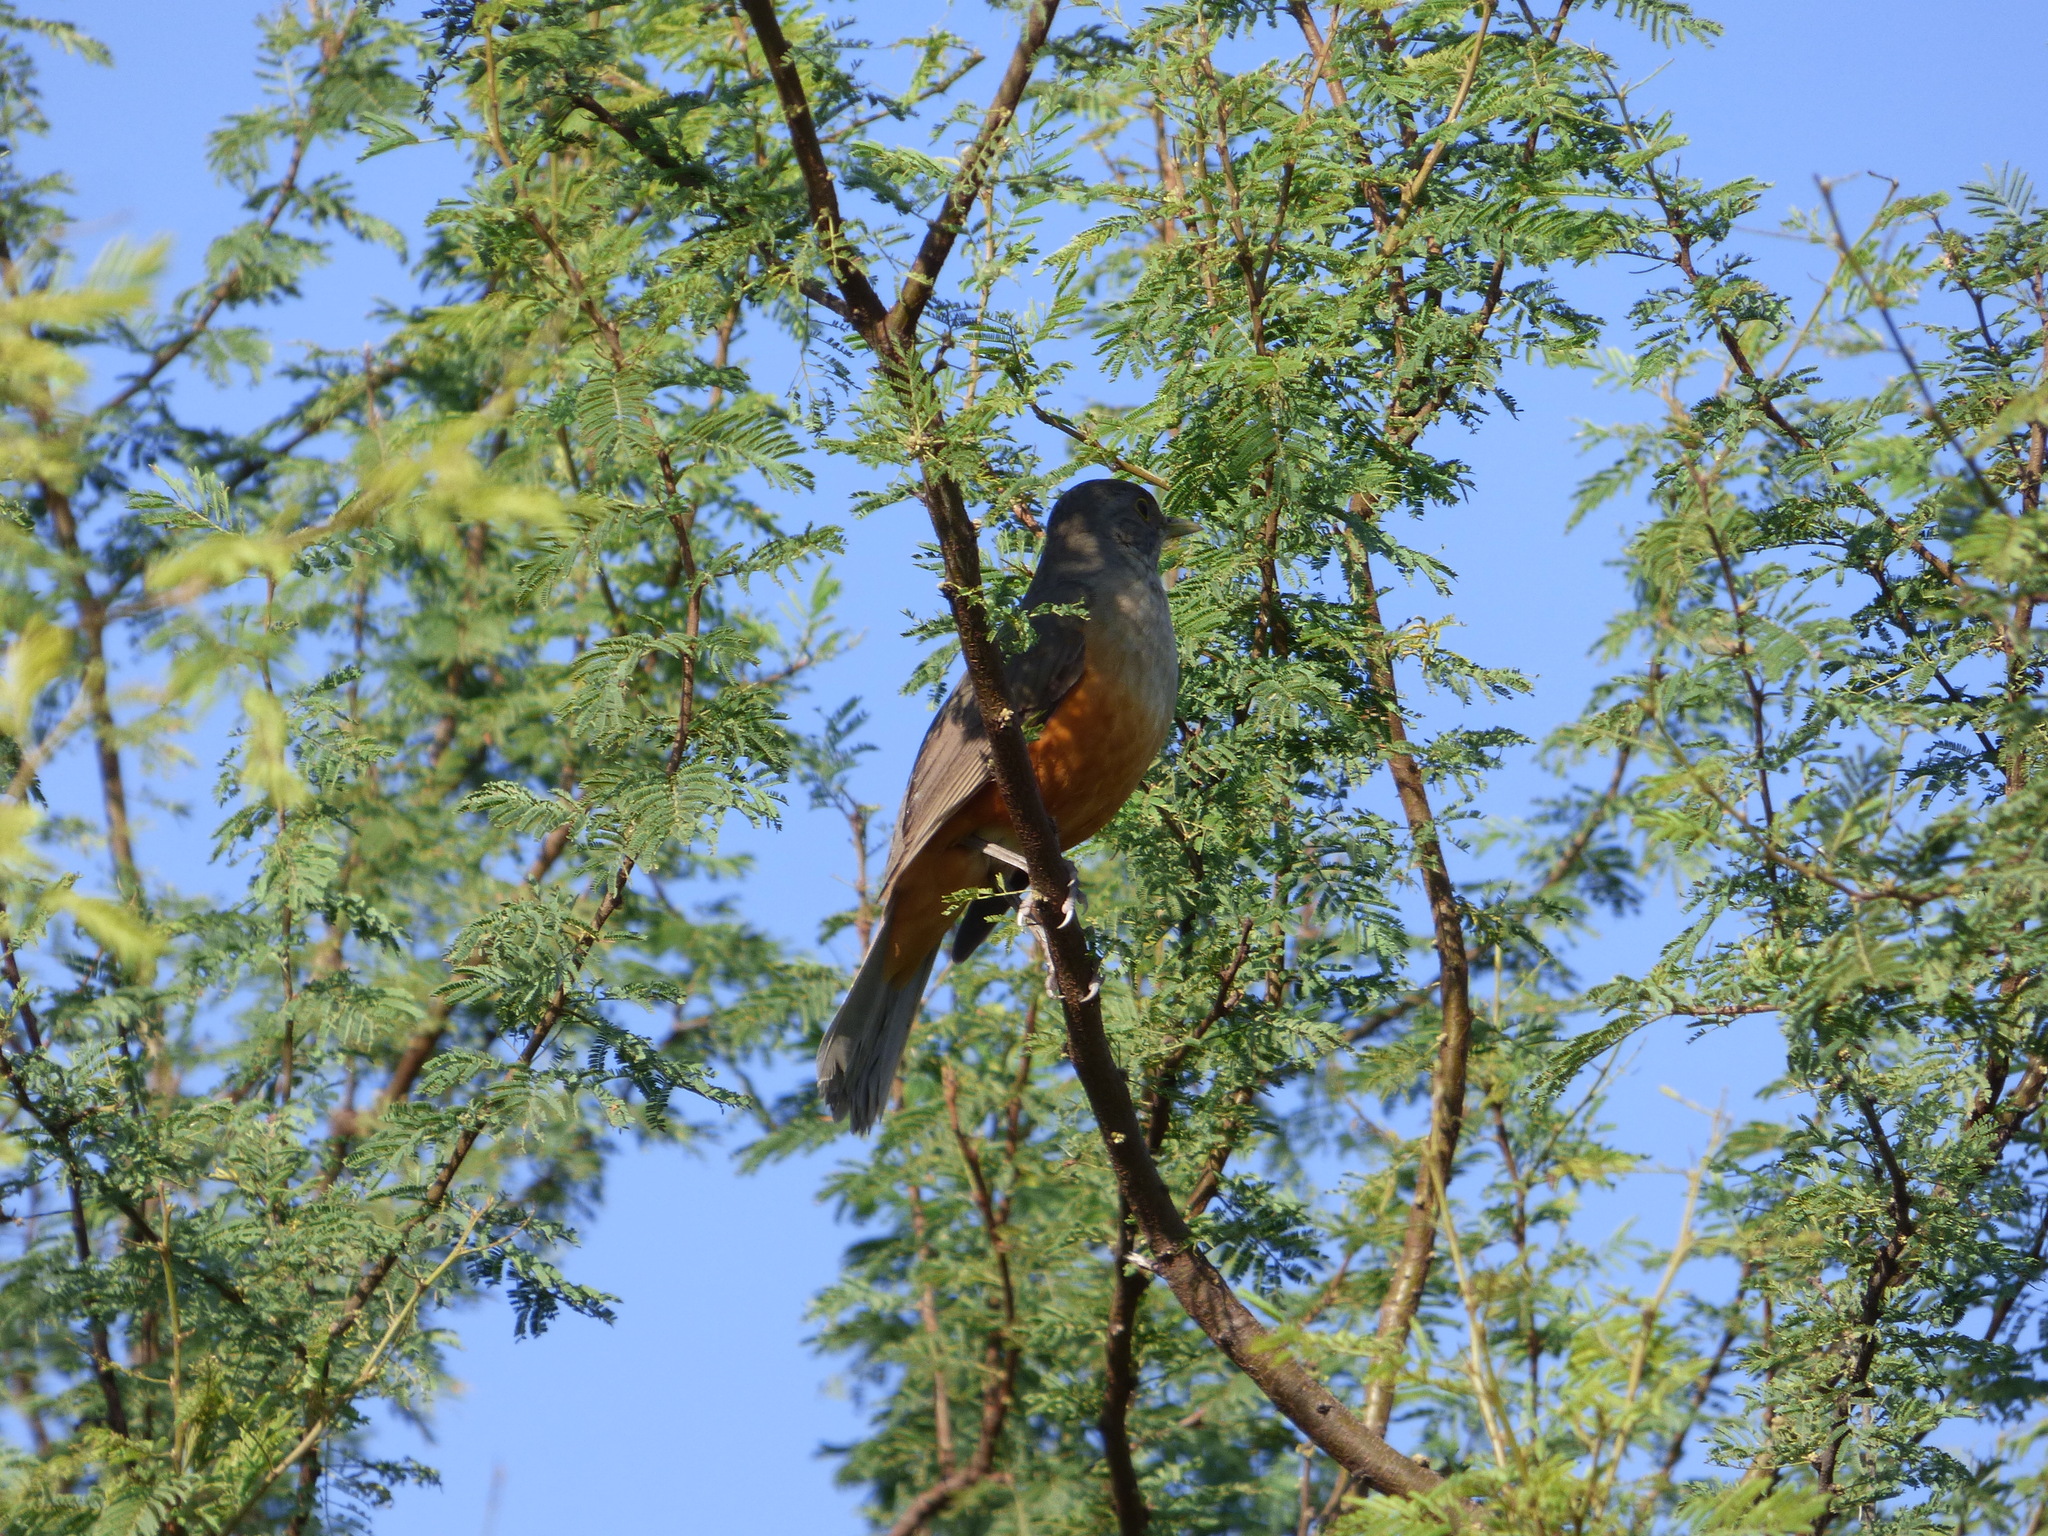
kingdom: Animalia
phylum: Chordata
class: Aves
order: Passeriformes
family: Turdidae
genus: Turdus
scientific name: Turdus rufiventris
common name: Rufous-bellied thrush
